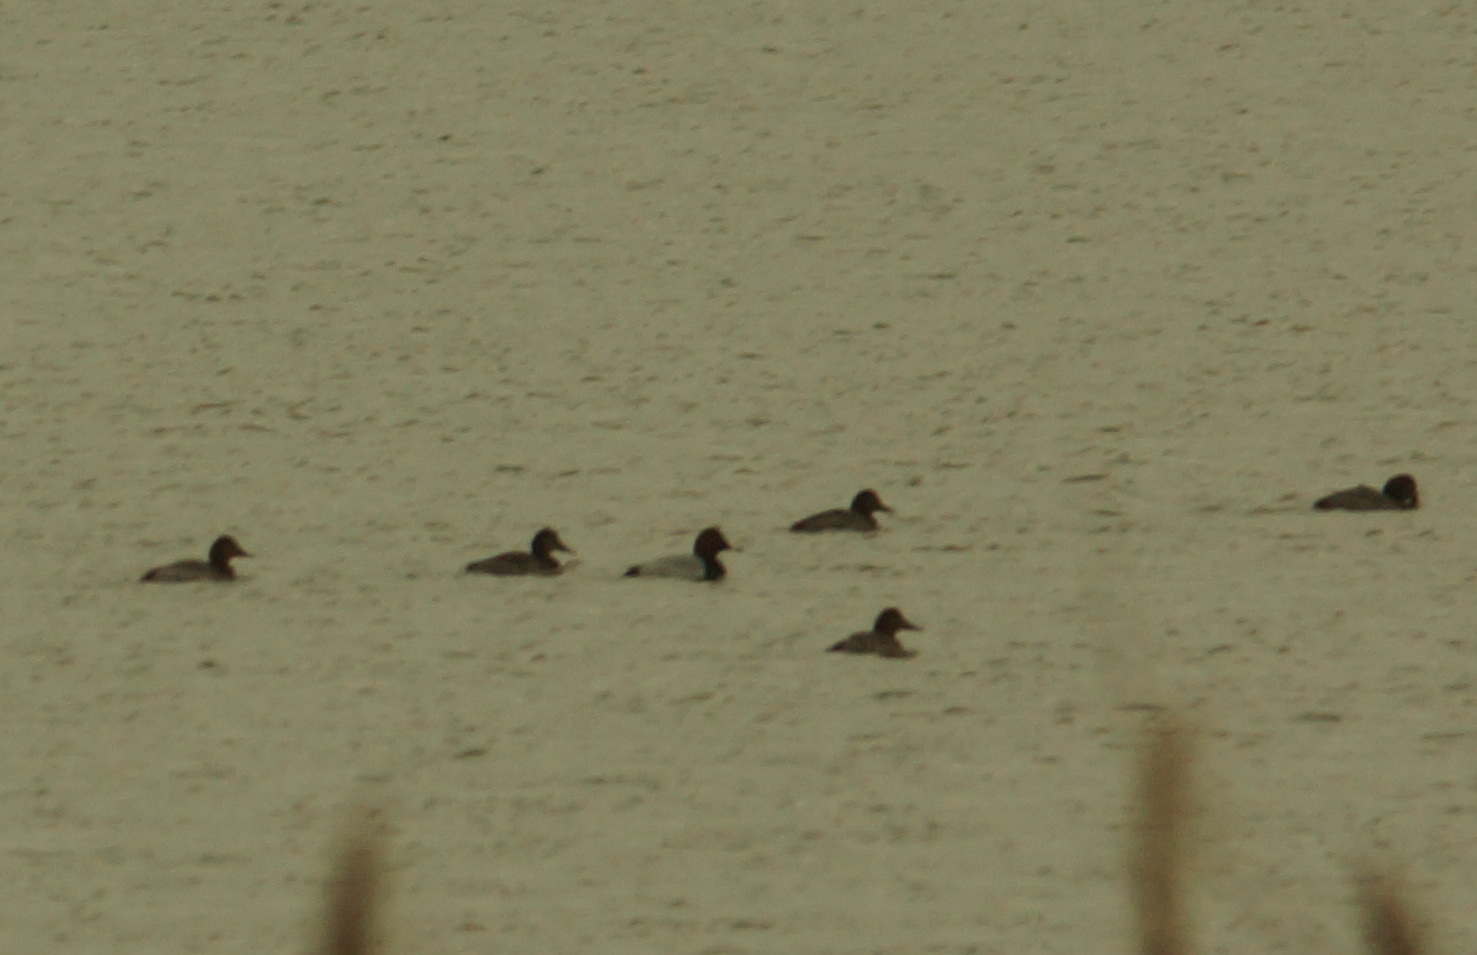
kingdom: Animalia
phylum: Chordata
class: Aves
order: Anseriformes
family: Anatidae
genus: Aythya
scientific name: Aythya ferina
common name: Common pochard
